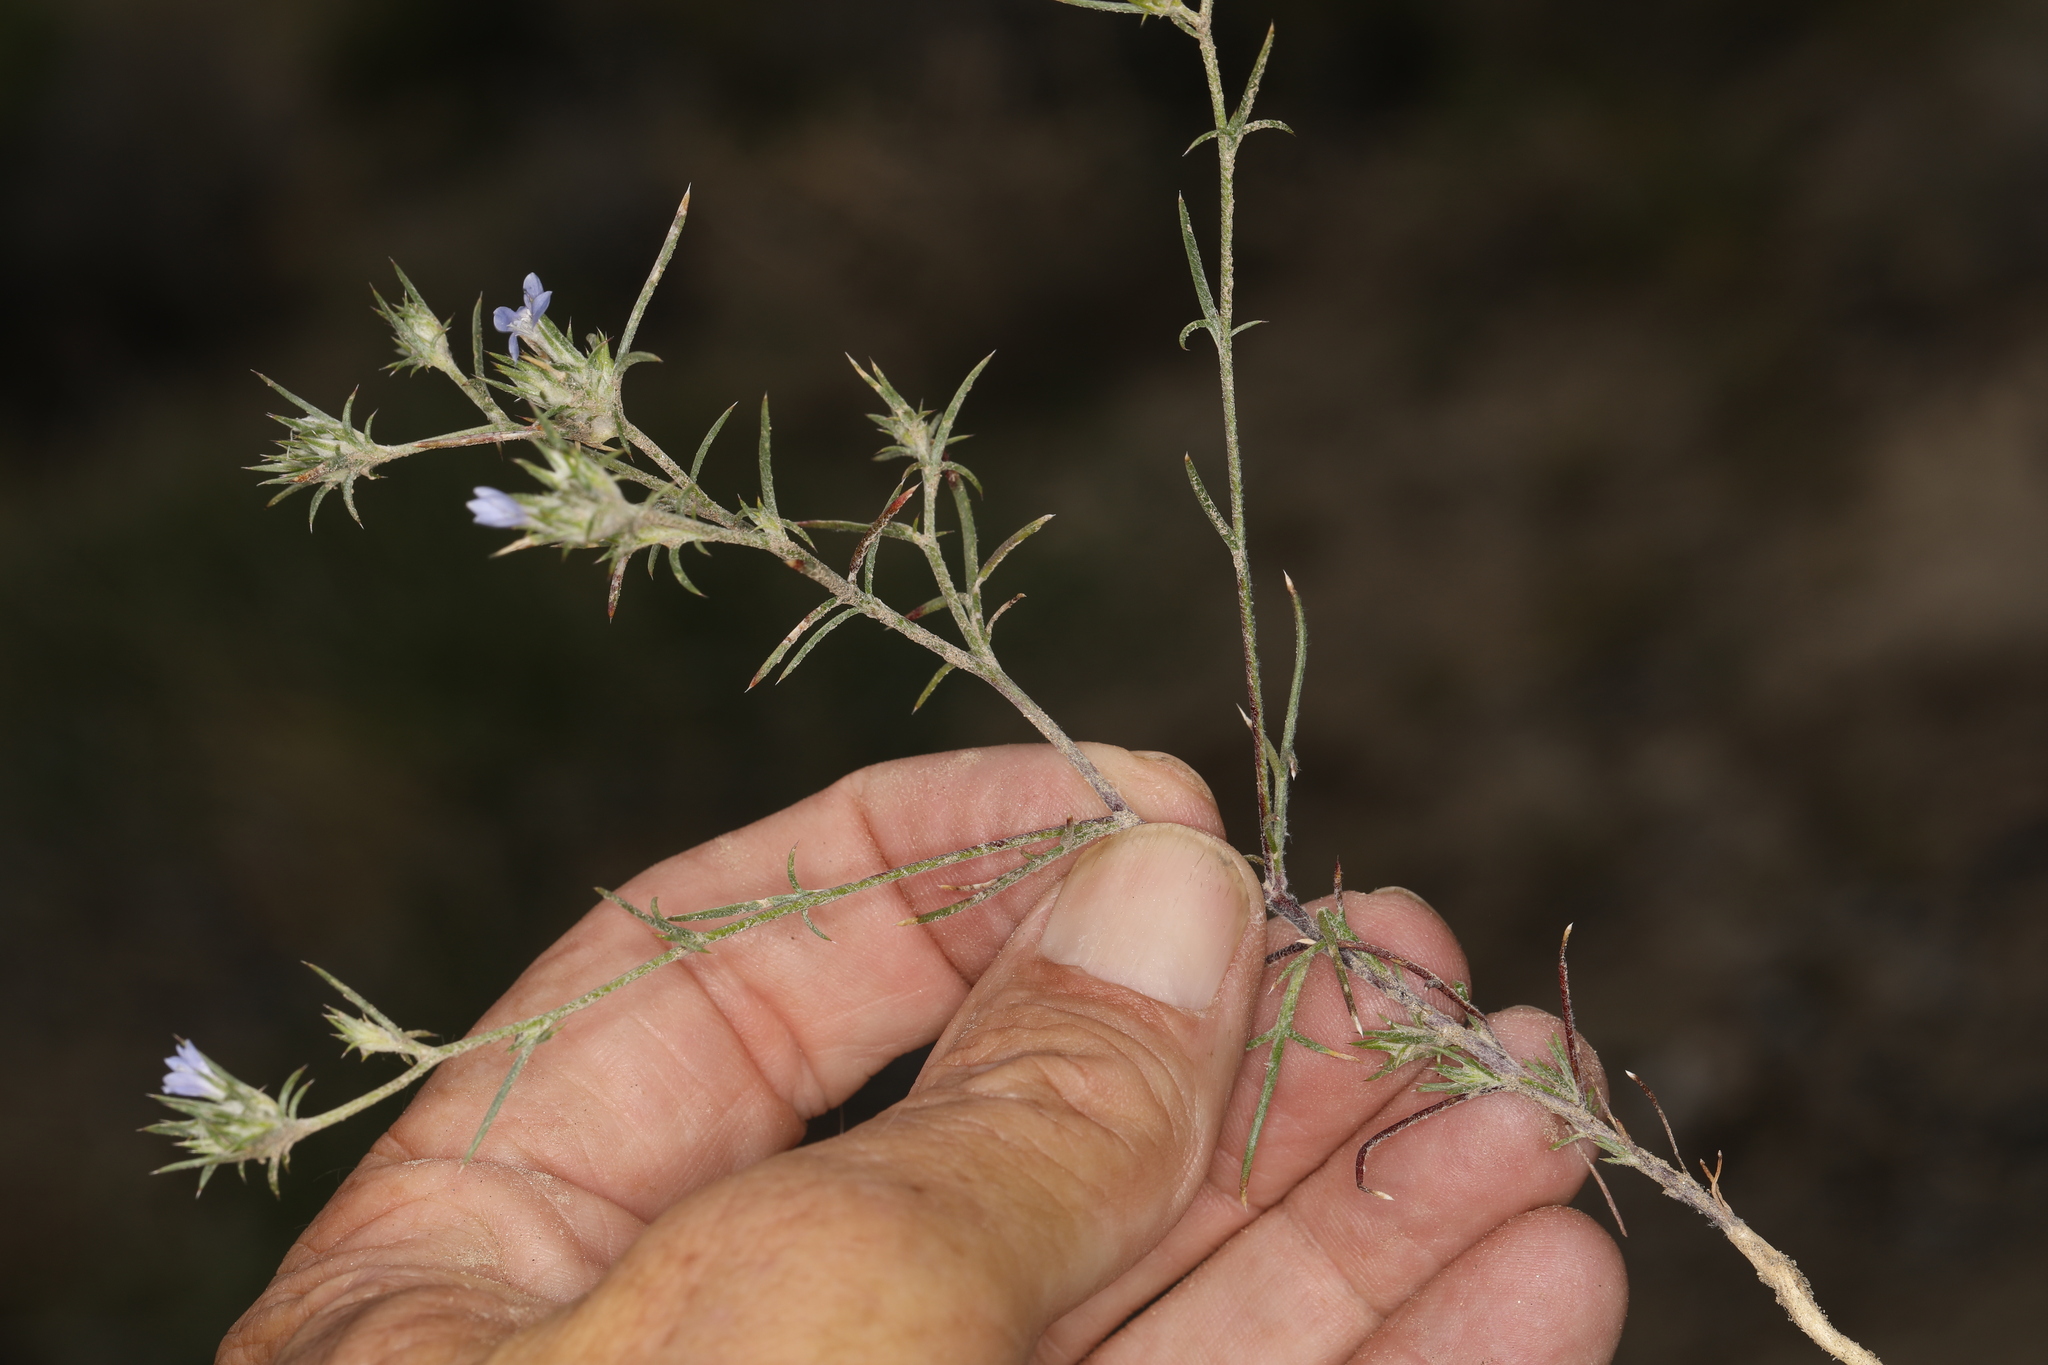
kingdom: Plantae
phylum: Tracheophyta
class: Magnoliopsida
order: Ericales
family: Polemoniaceae
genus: Eriastrum
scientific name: Eriastrum wilcoxii
